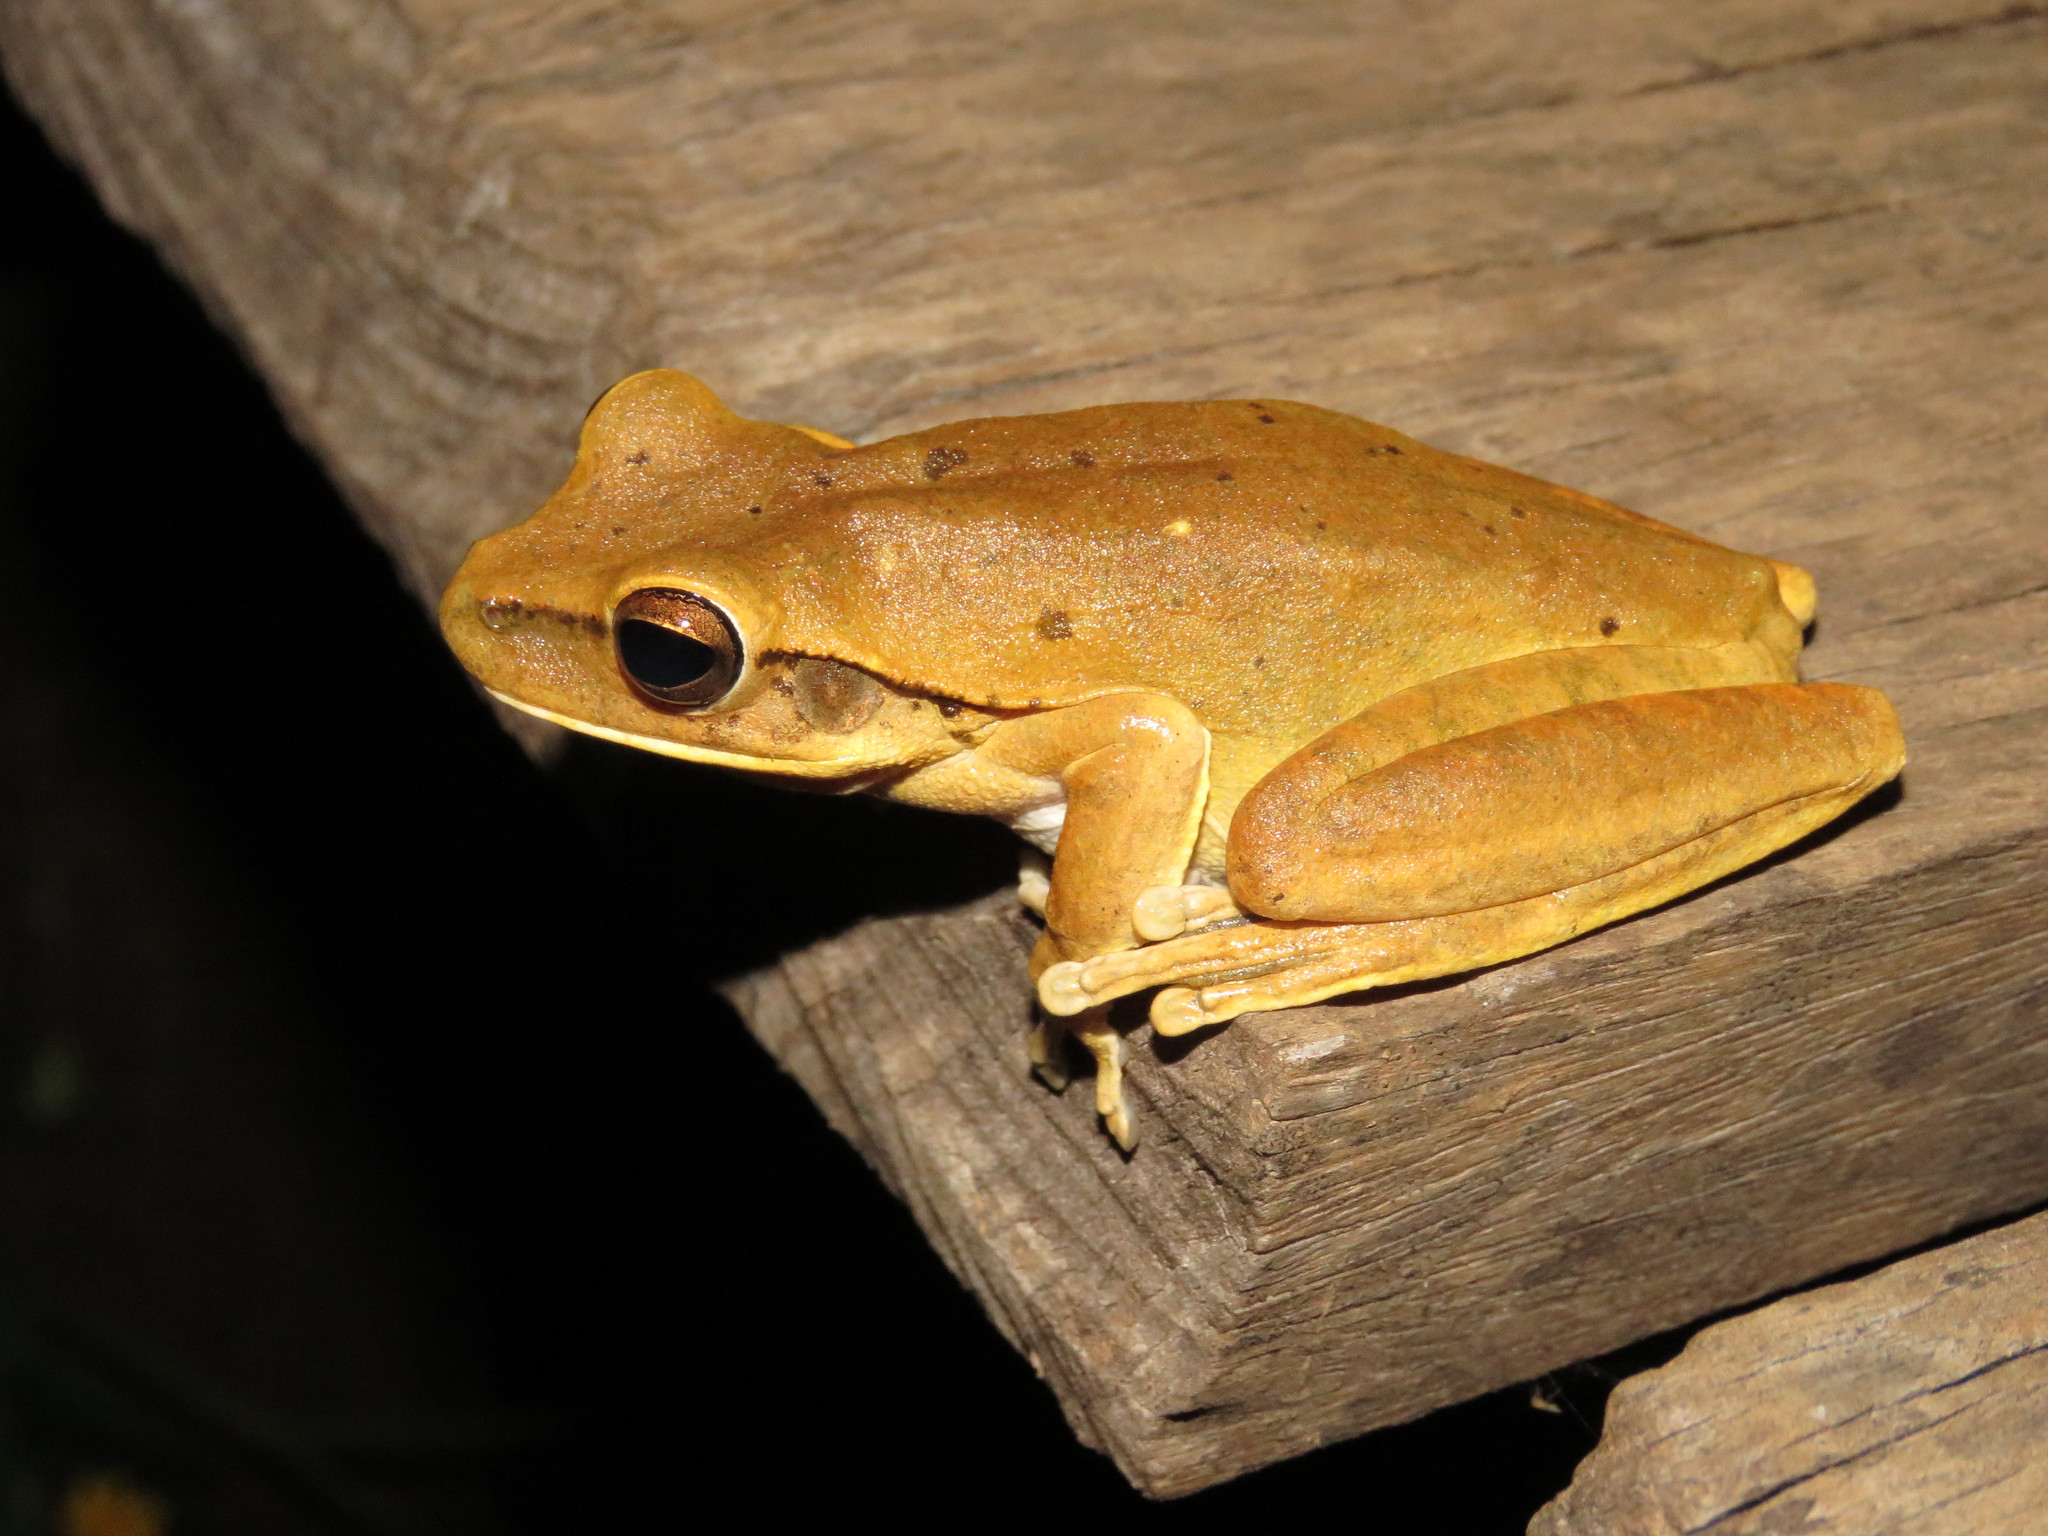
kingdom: Animalia
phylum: Chordata
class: Amphibia
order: Anura
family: Hylidae
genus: Boana
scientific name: Boana raniceps
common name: Chaco treefrog
